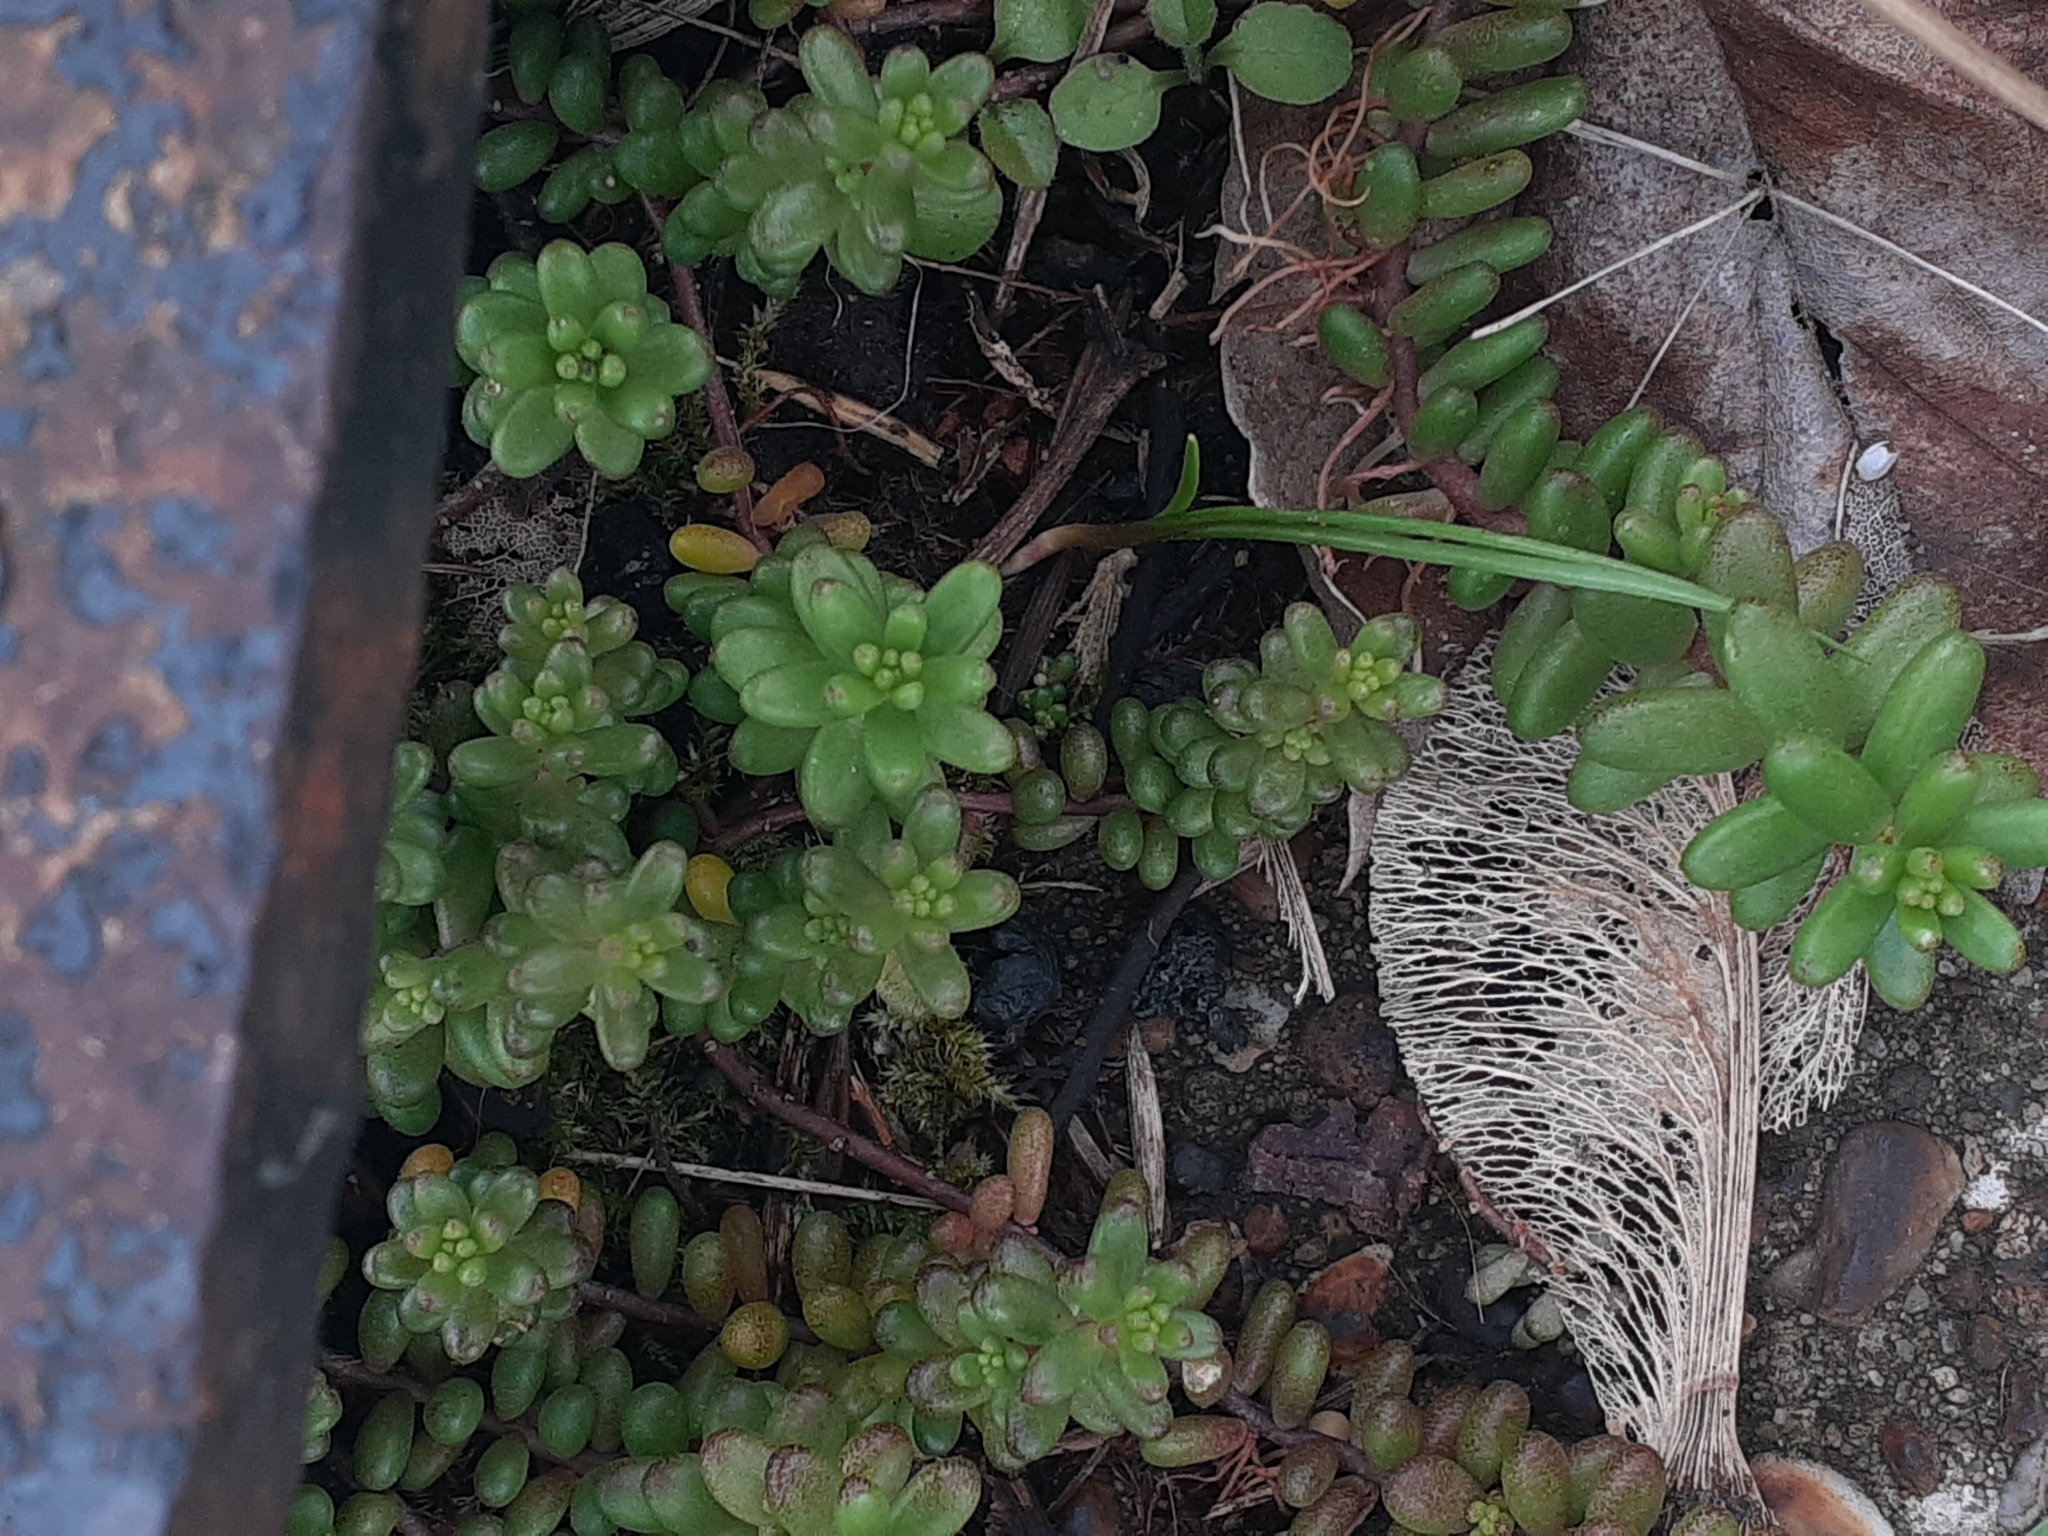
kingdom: Plantae
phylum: Tracheophyta
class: Magnoliopsida
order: Saxifragales
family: Crassulaceae
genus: Sedum
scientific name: Sedum album
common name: White stonecrop
